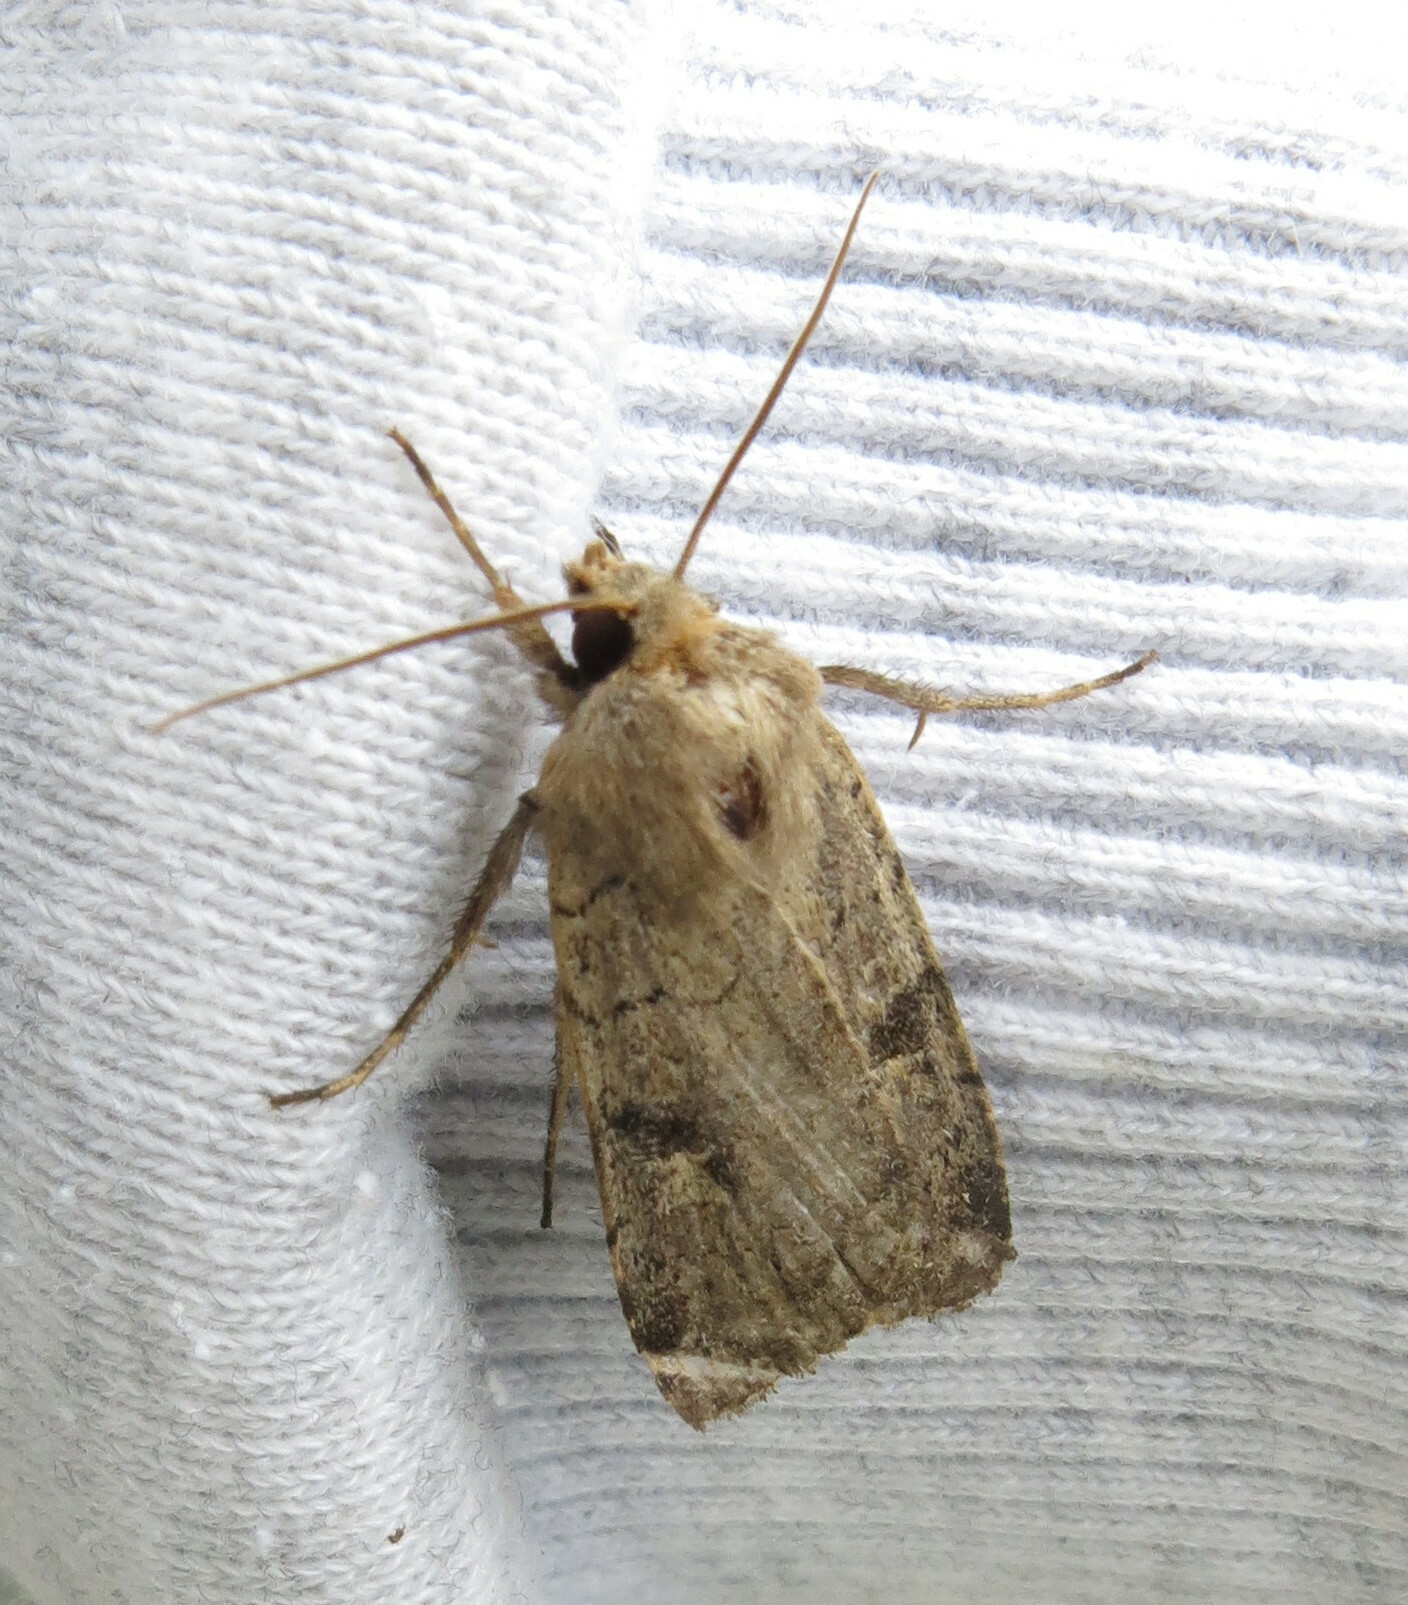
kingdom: Animalia
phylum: Arthropoda
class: Insecta
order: Lepidoptera
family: Noctuidae
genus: Xestia
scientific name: Xestia xanthographa
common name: Square-spot rustic
